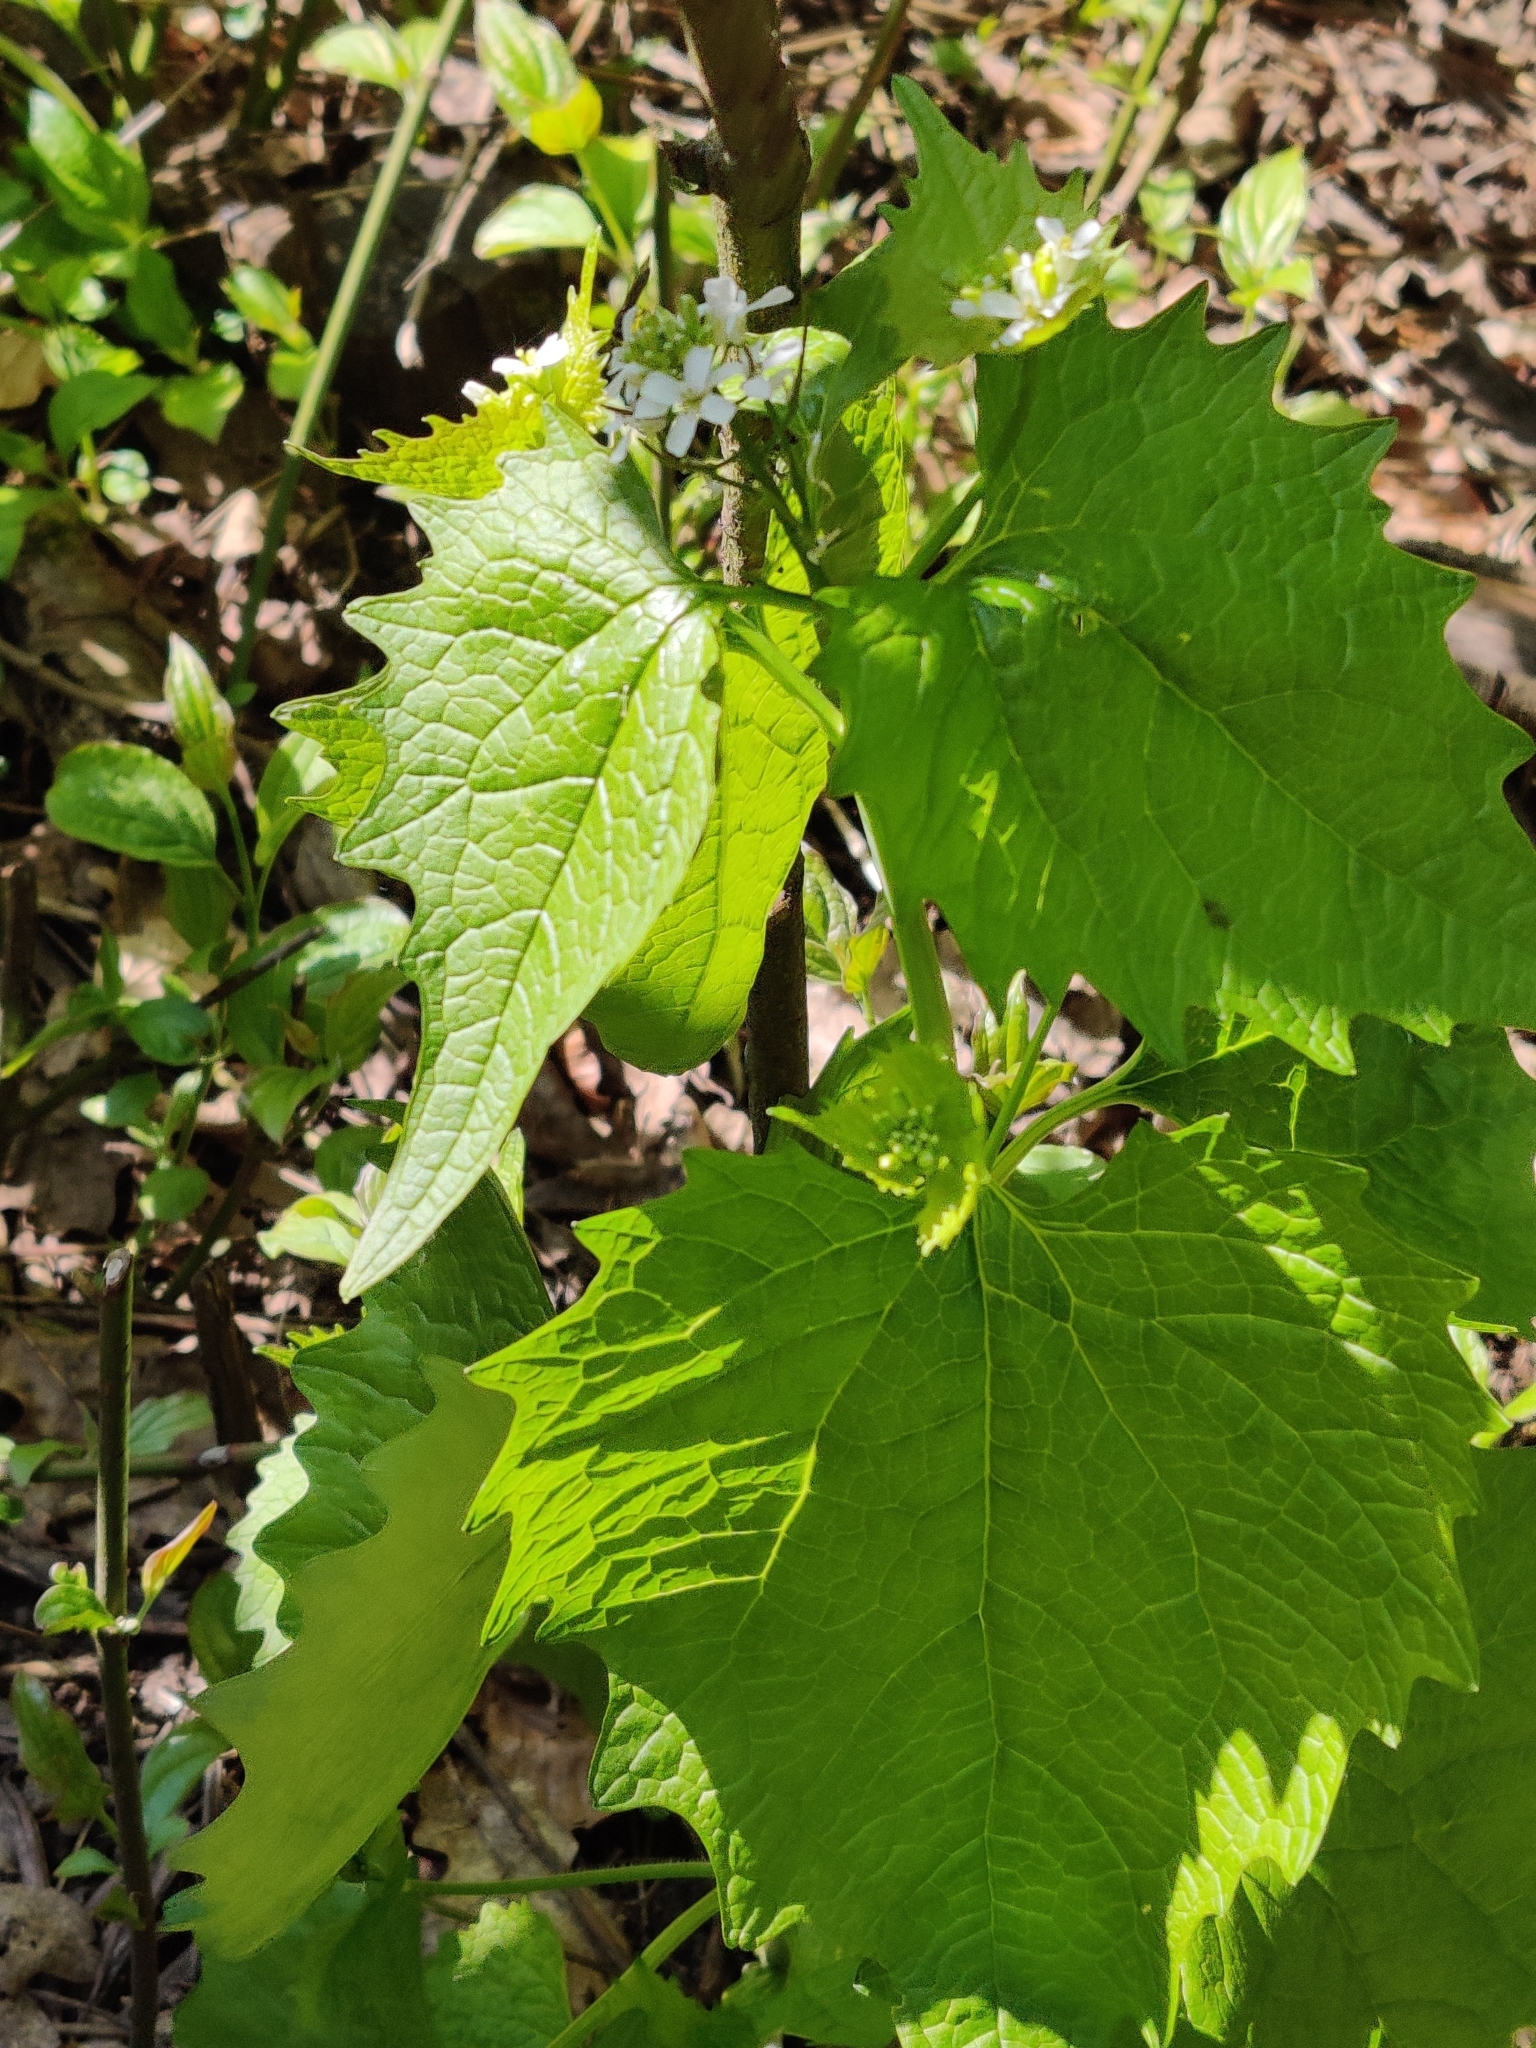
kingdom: Plantae
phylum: Tracheophyta
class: Magnoliopsida
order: Brassicales
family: Brassicaceae
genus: Alliaria
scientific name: Alliaria petiolata
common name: Garlic mustard
